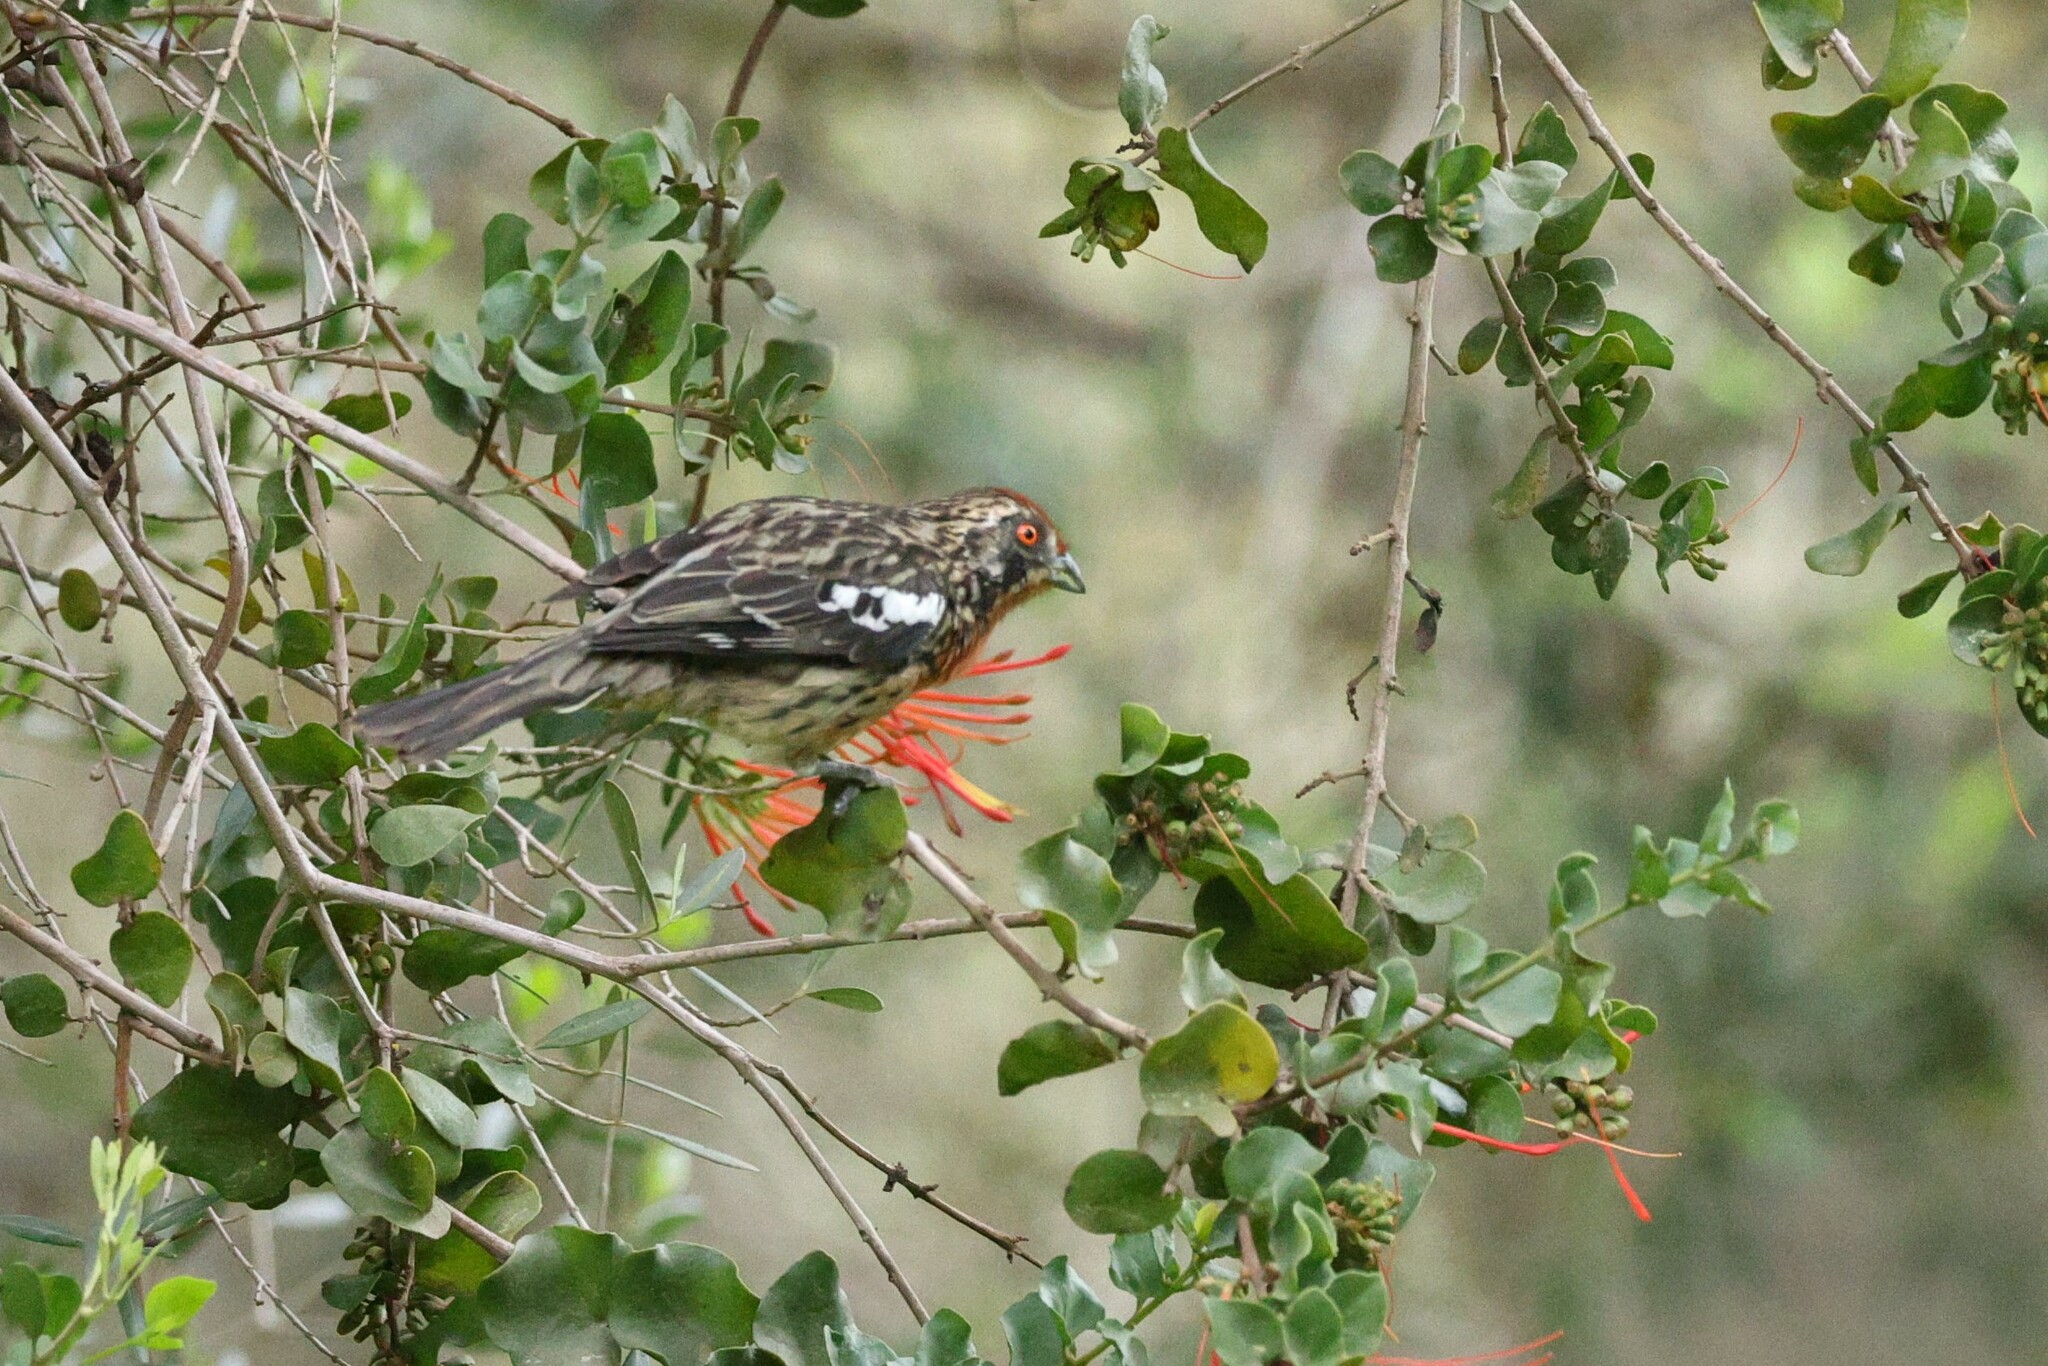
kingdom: Animalia
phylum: Chordata
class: Aves
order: Passeriformes
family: Cotingidae
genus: Phytotoma
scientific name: Phytotoma rara
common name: Rufous-tailed plantcutter
